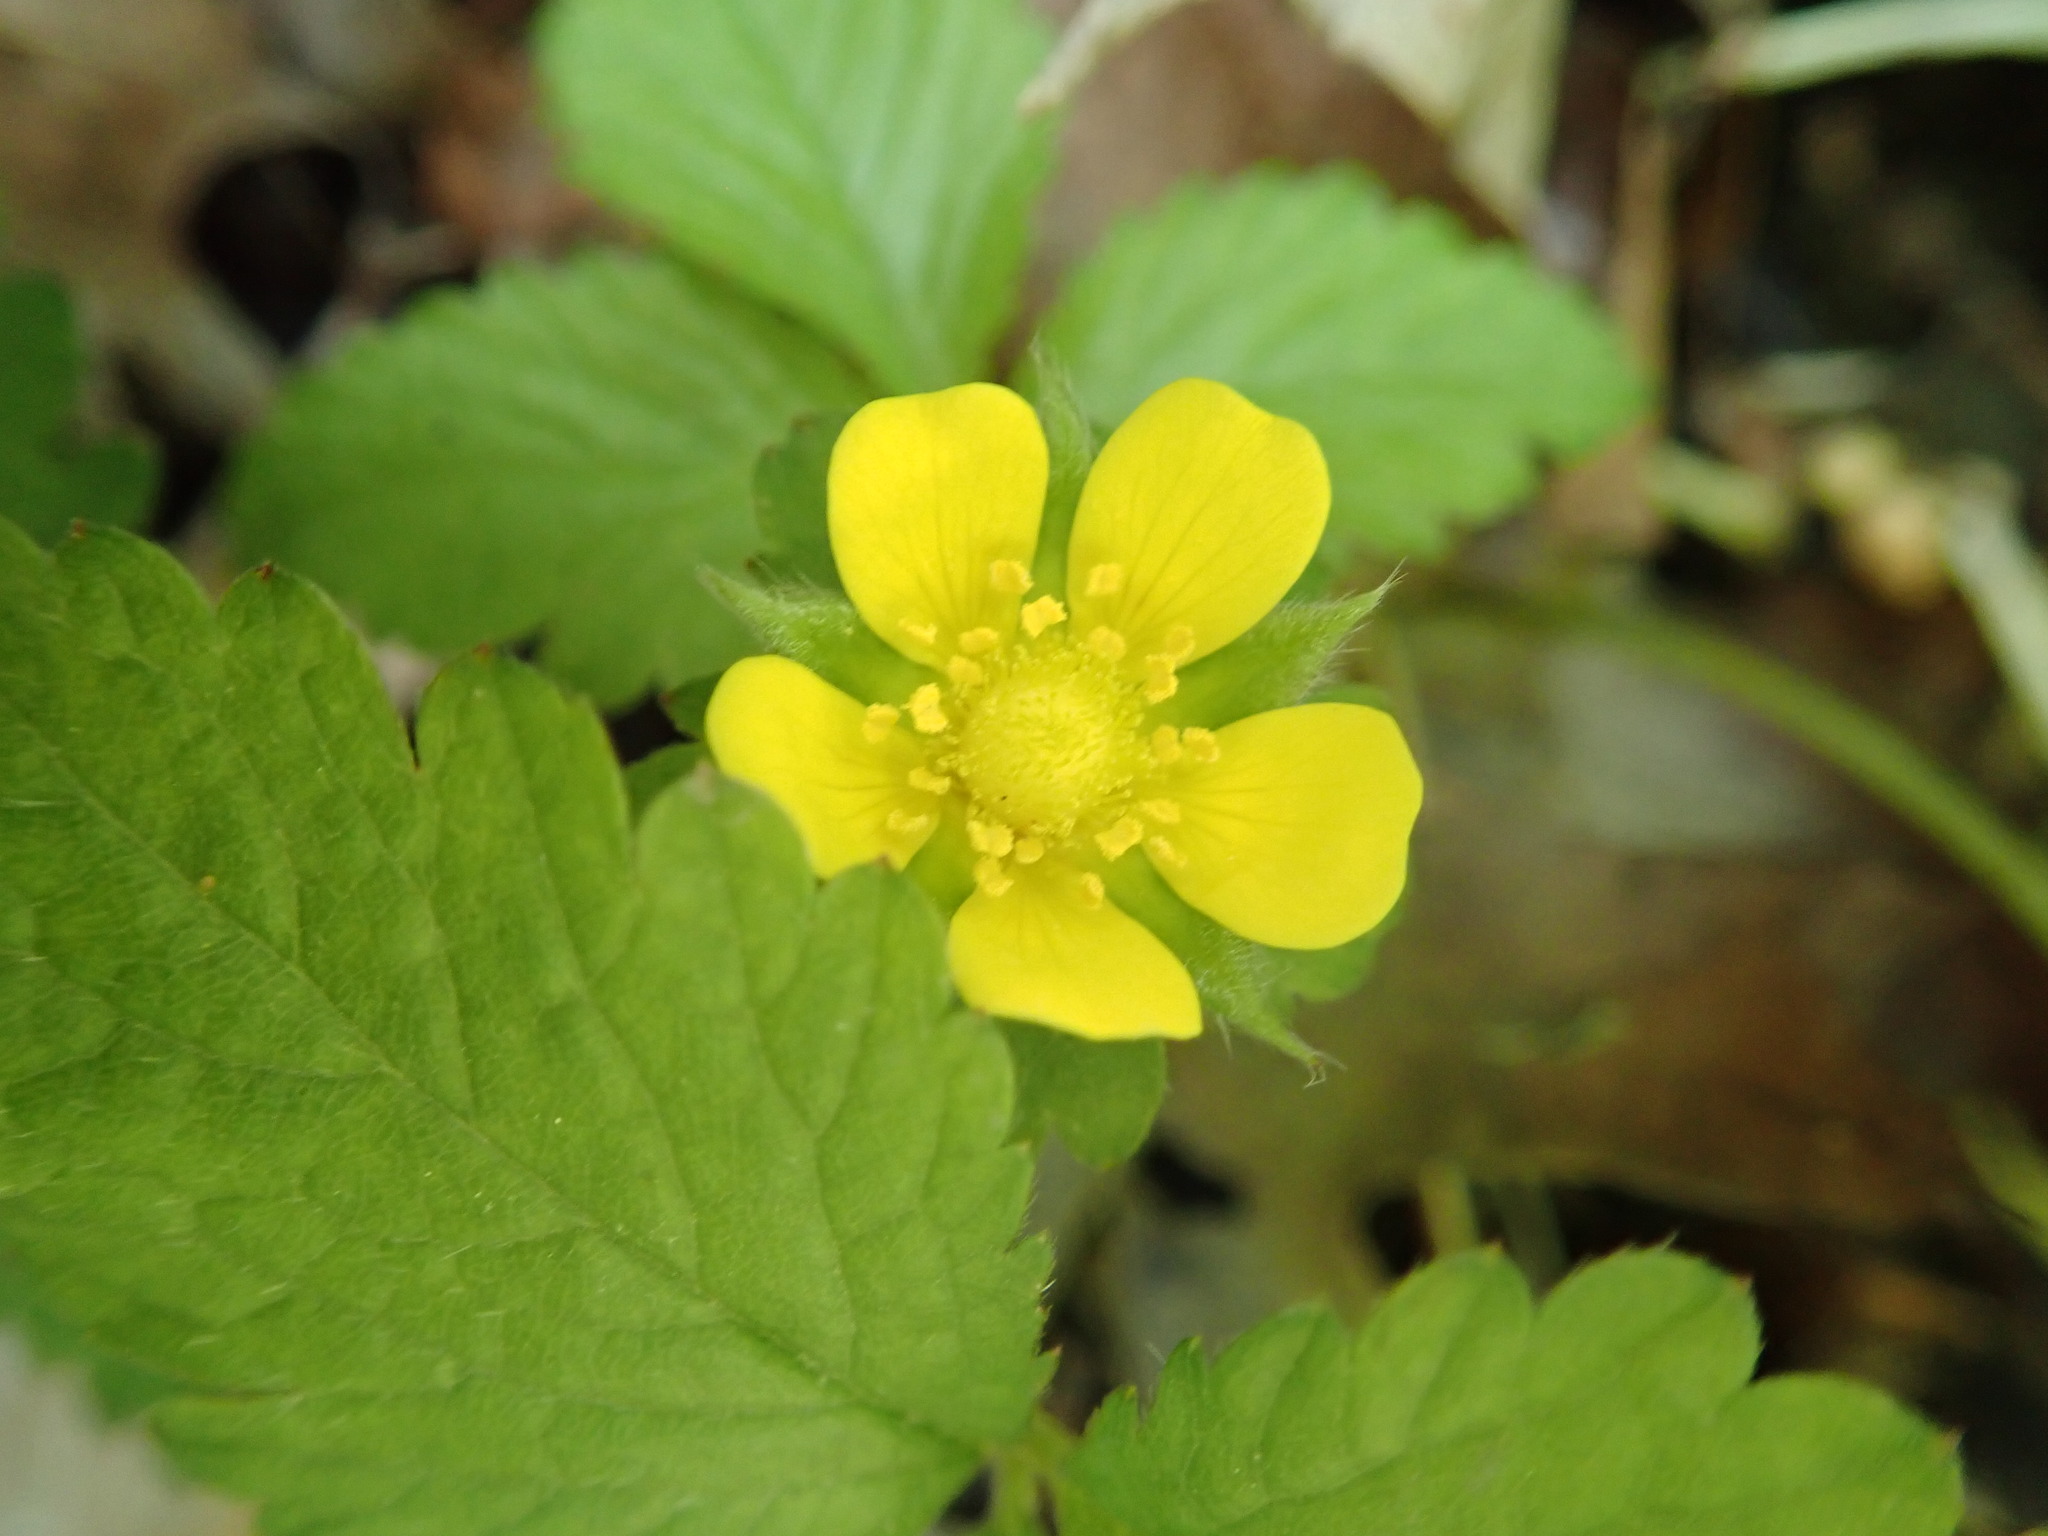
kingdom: Plantae
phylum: Tracheophyta
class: Magnoliopsida
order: Rosales
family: Rosaceae
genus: Potentilla
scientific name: Potentilla indica
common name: Yellow-flowered strawberry
